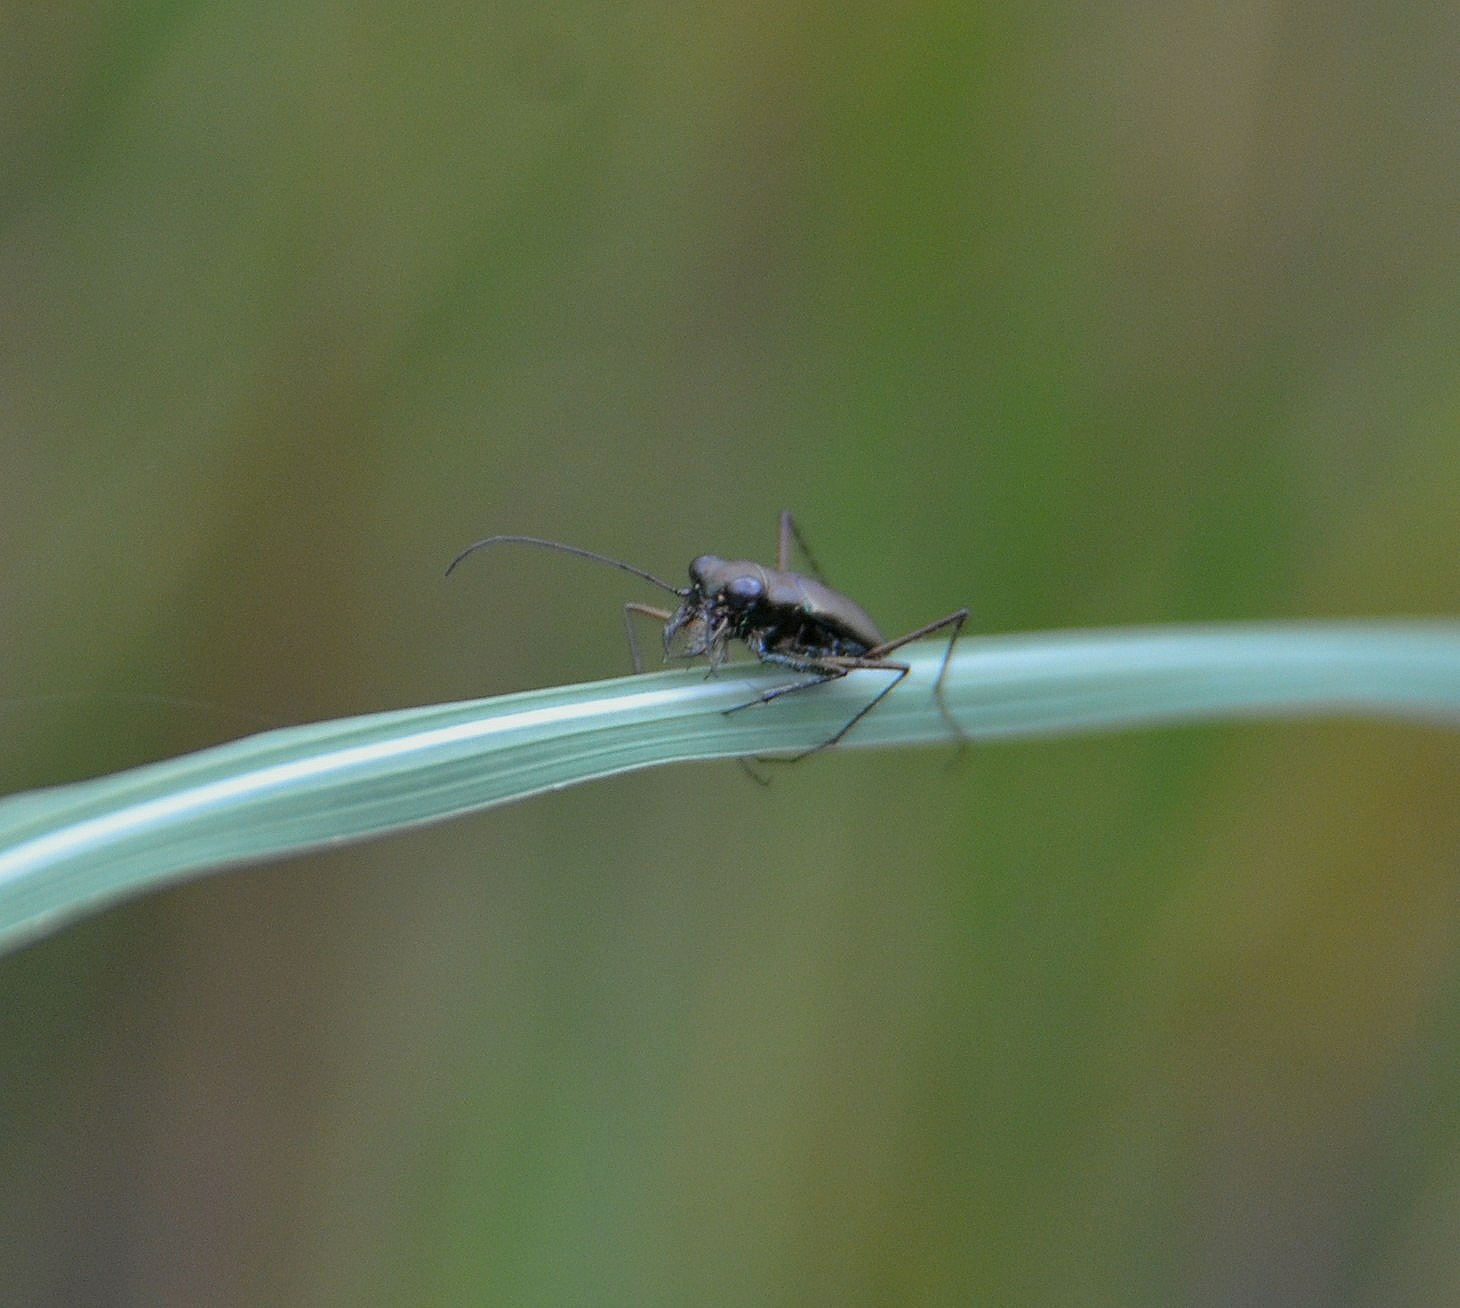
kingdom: Animalia
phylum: Arthropoda
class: Insecta
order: Coleoptera
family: Carabidae
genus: Callytron
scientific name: Callytron malabaricum
